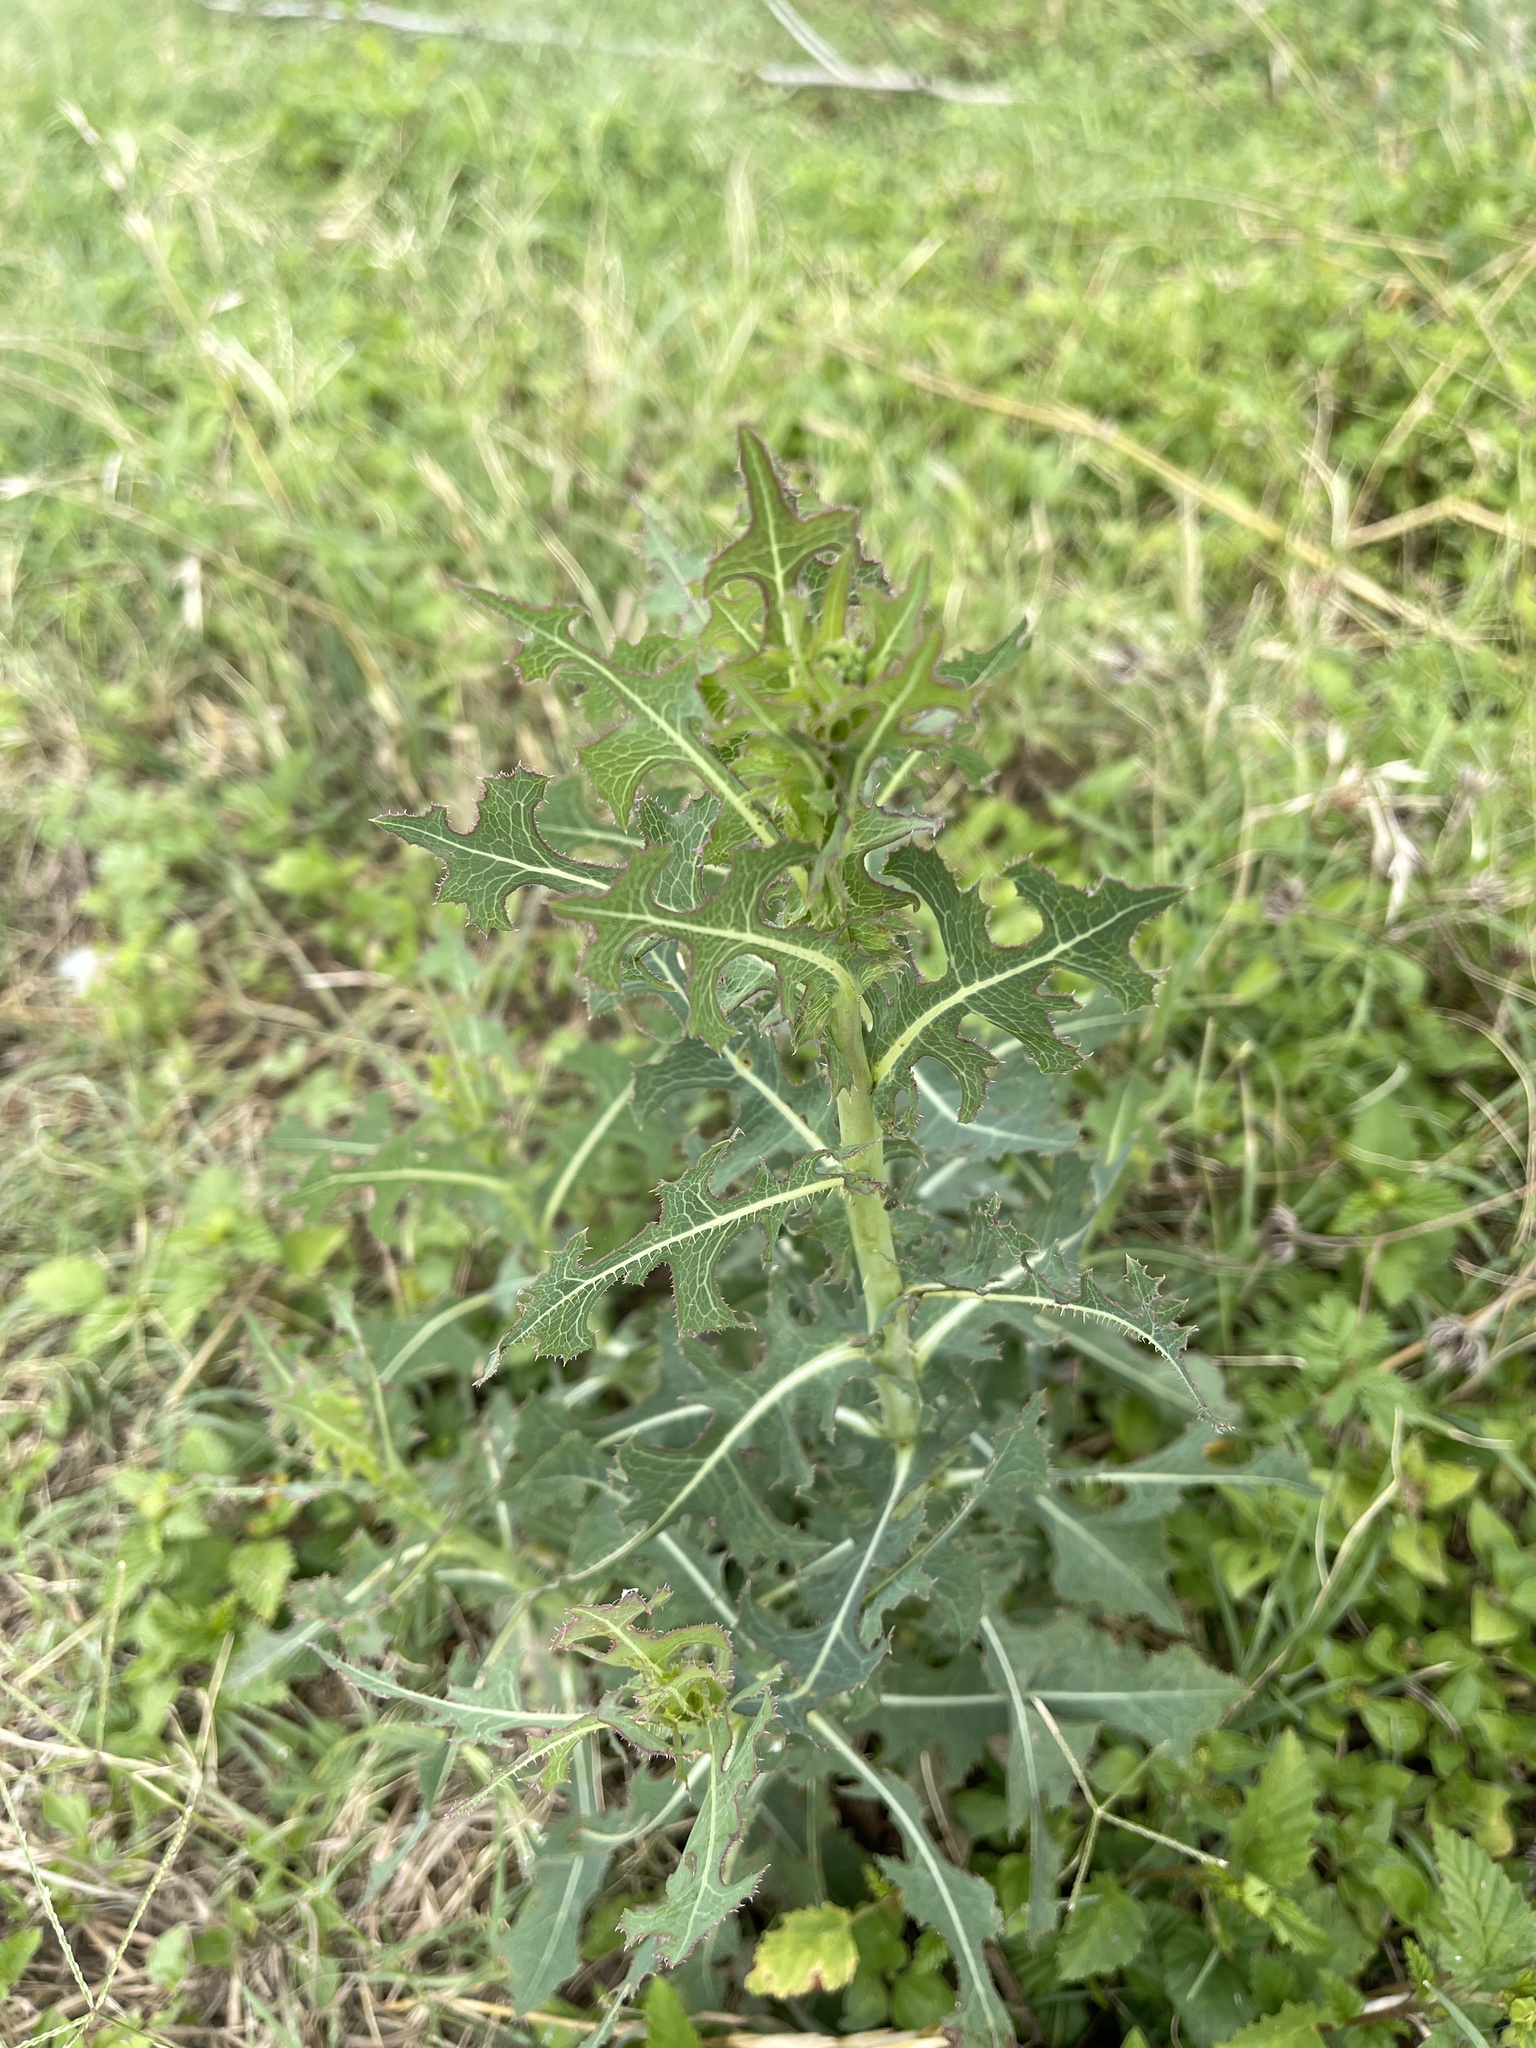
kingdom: Plantae
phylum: Tracheophyta
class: Magnoliopsida
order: Asterales
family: Asteraceae
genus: Lactuca
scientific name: Lactuca serriola
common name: Prickly lettuce
